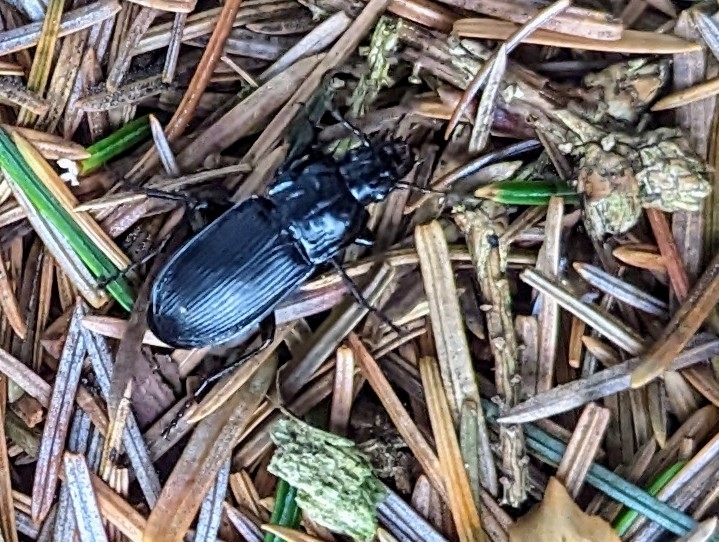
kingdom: Animalia
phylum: Arthropoda
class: Insecta
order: Coleoptera
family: Carabidae
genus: Abax
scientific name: Abax parallelepipedus
